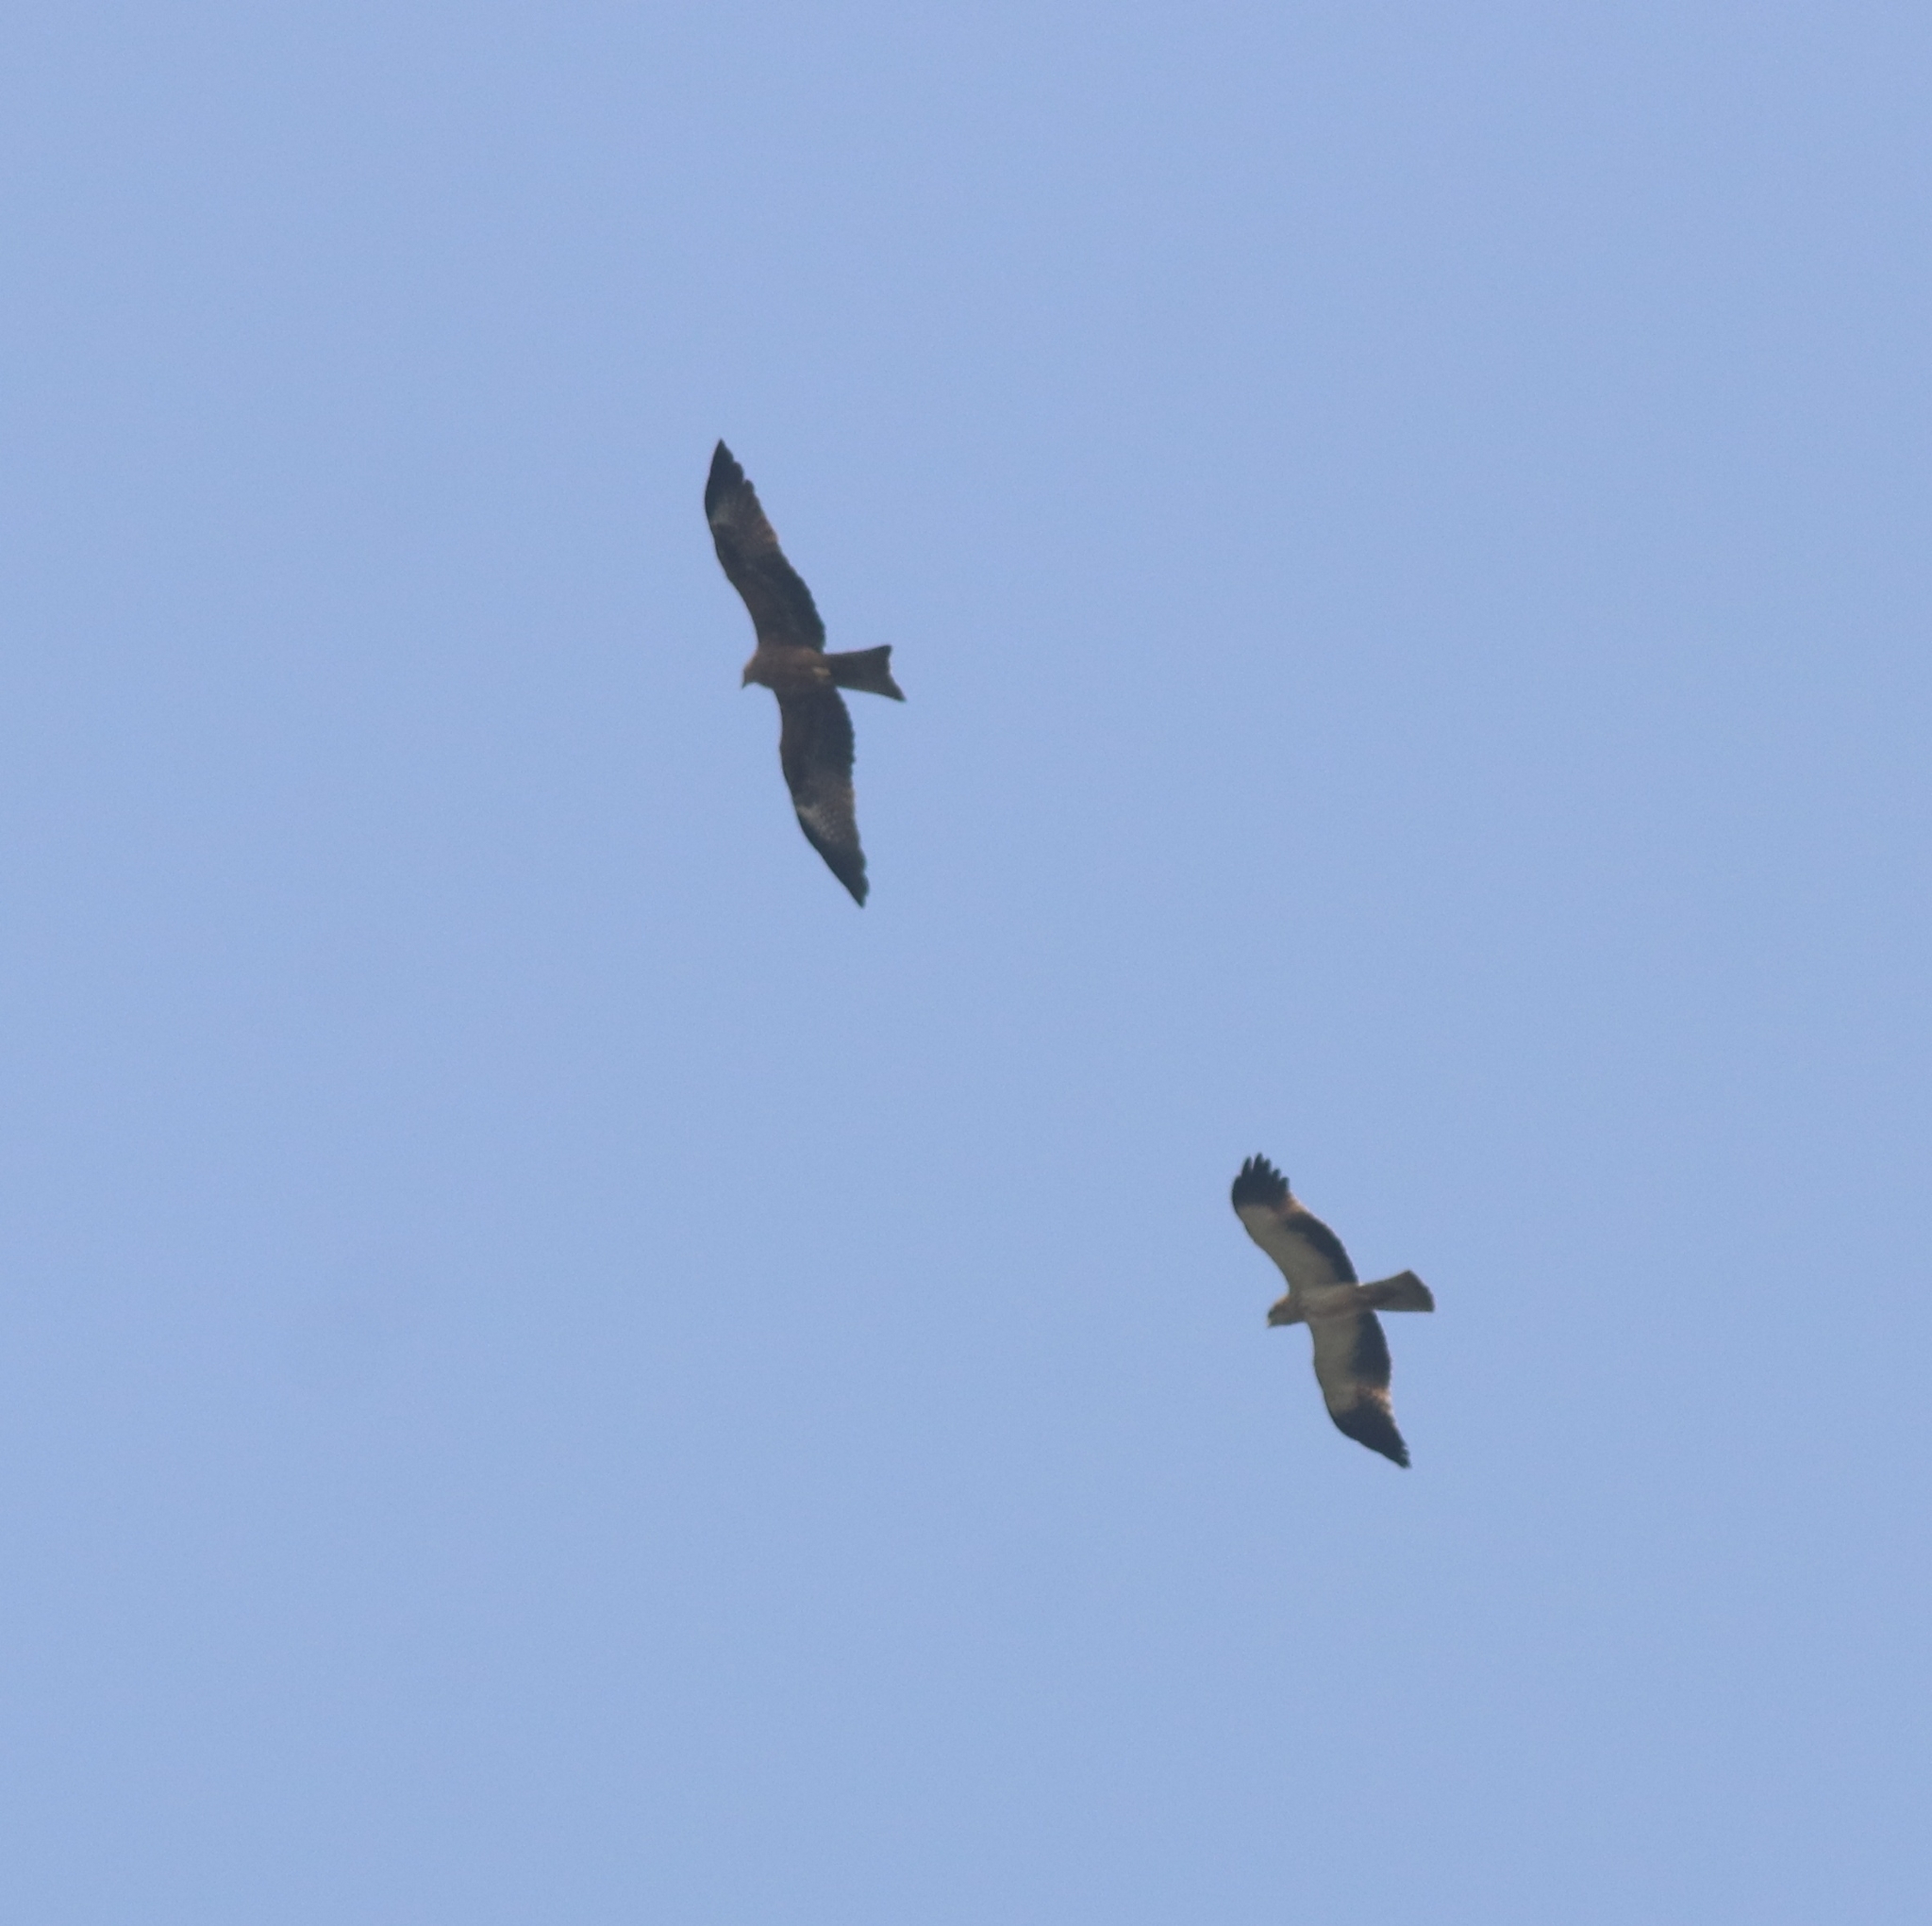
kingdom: Animalia
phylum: Chordata
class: Aves
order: Accipitriformes
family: Accipitridae
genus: Milvus
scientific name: Milvus migrans
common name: Black kite
